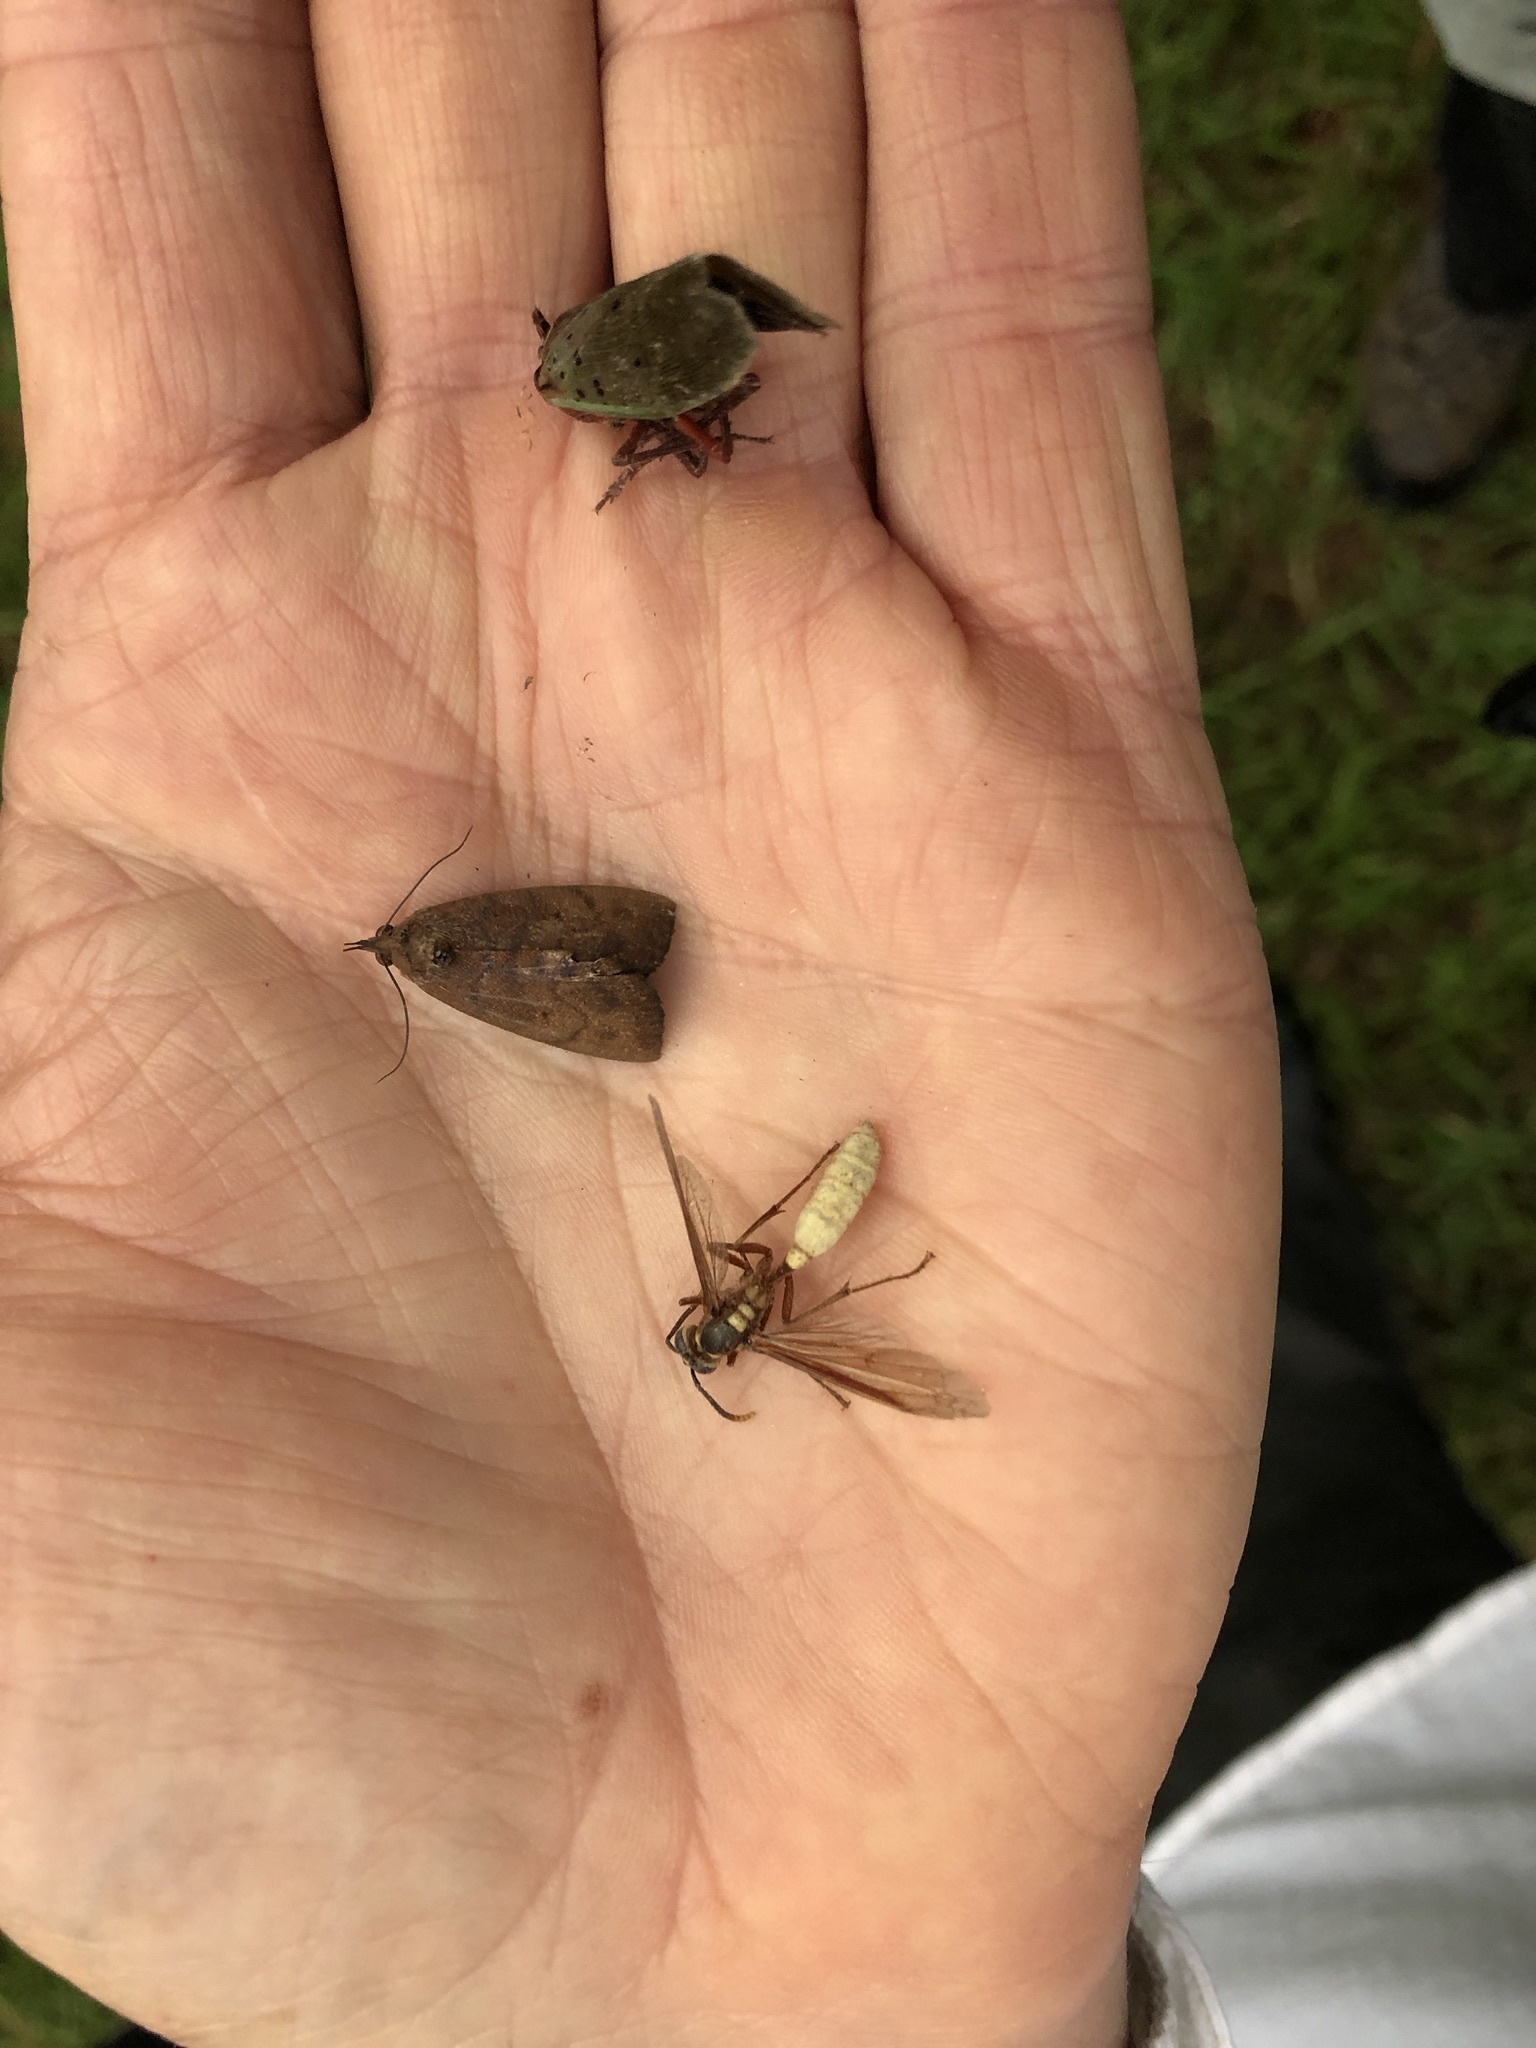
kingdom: Animalia
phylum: Arthropoda
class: Insecta
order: Hymenoptera
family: Vespidae
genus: Apoica
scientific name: Apoica pallens
